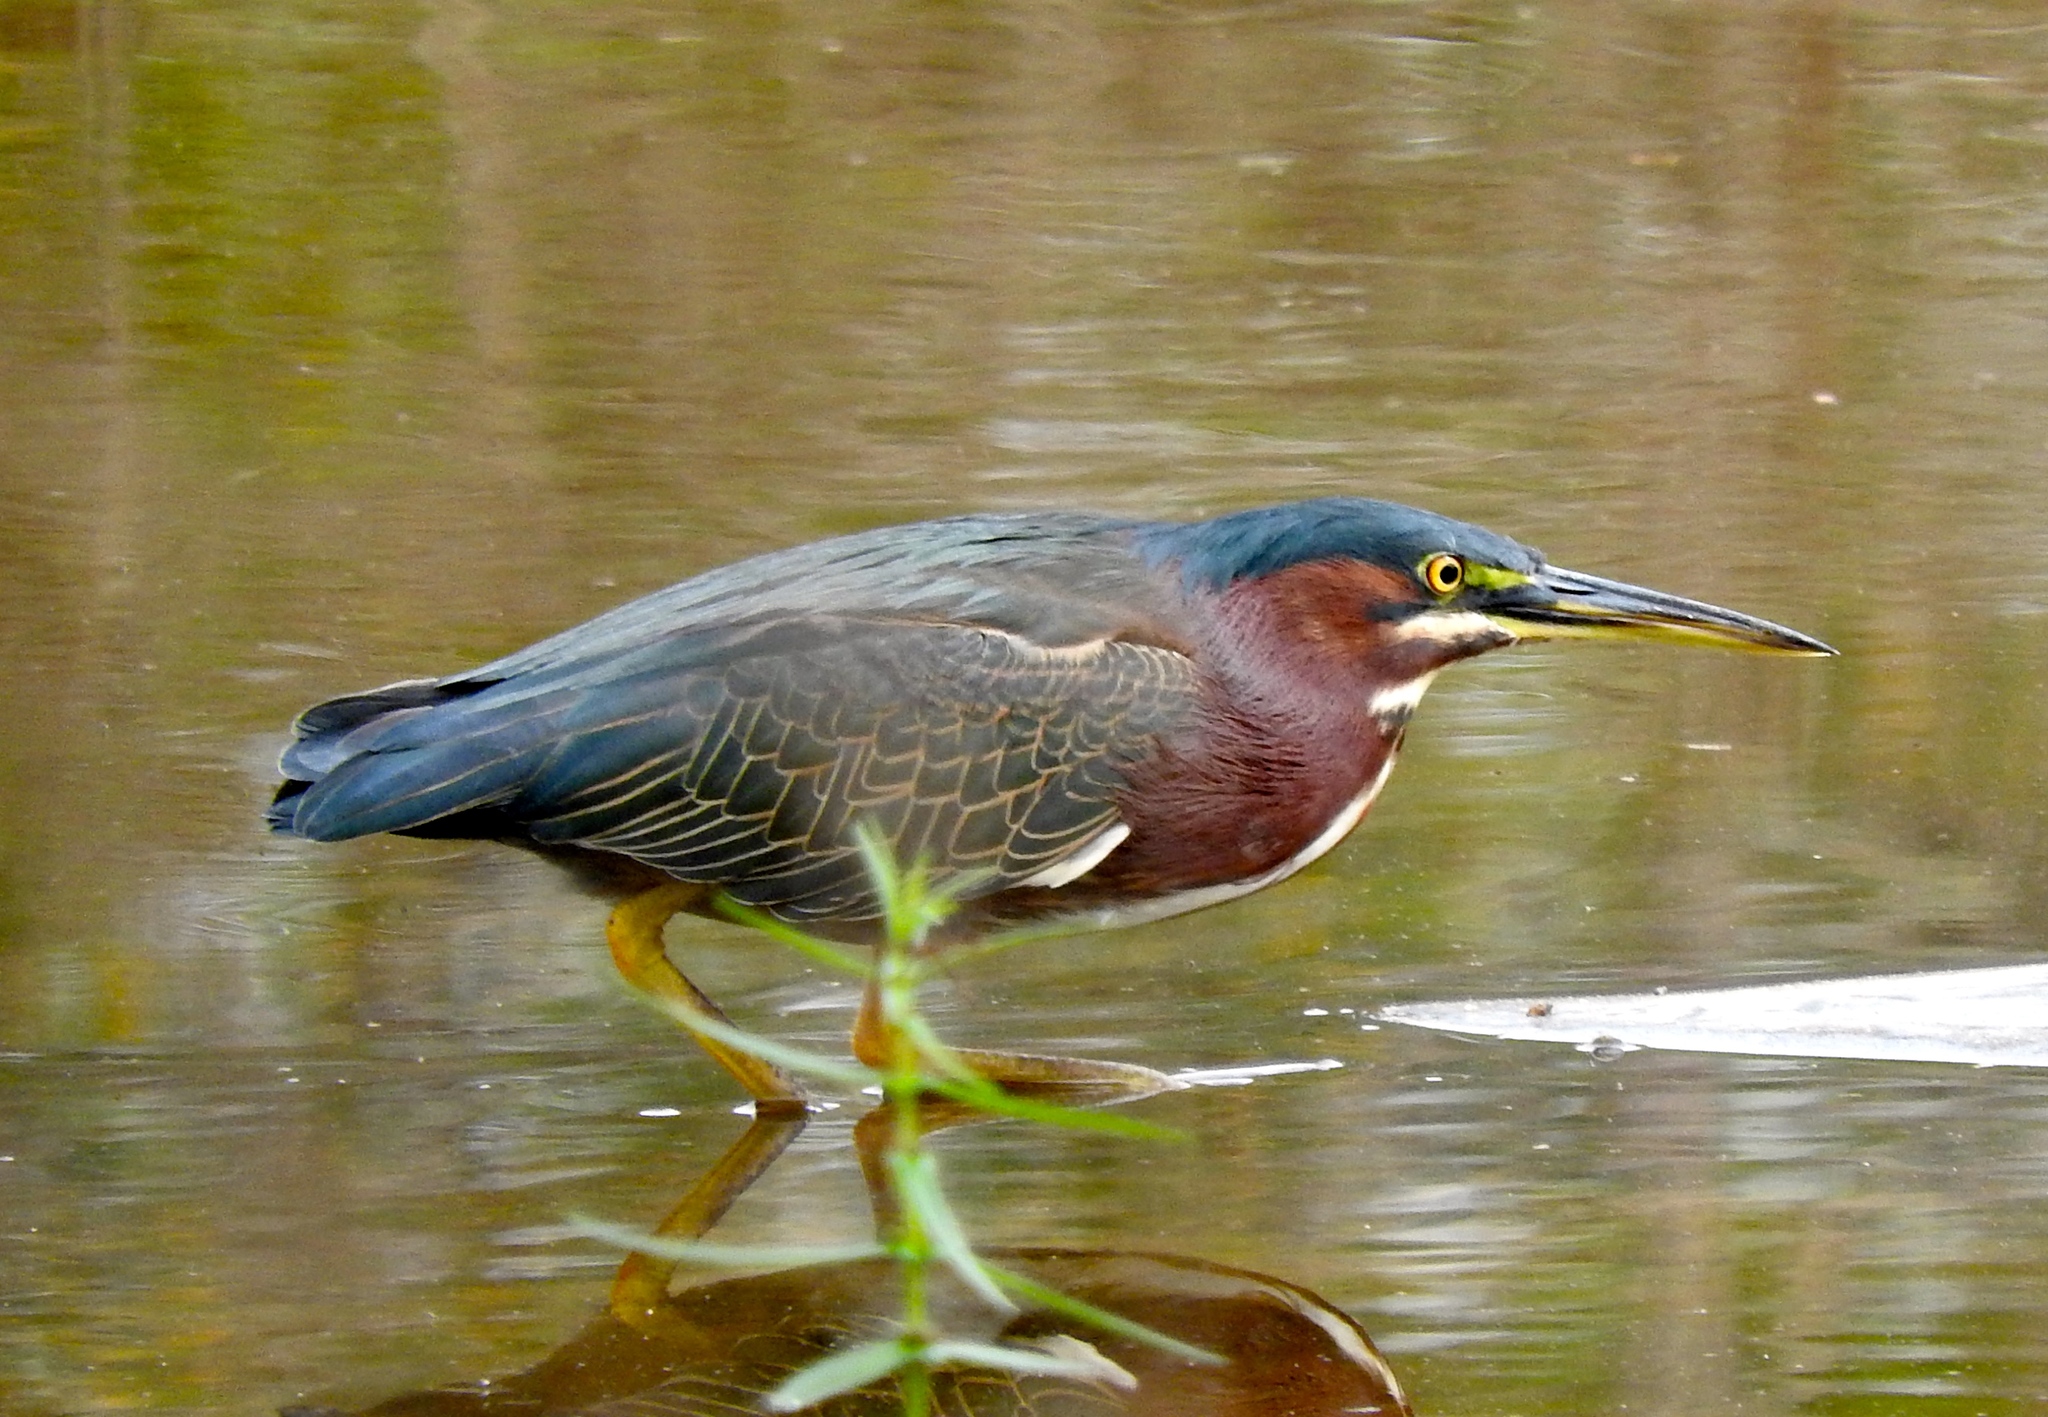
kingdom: Animalia
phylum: Chordata
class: Aves
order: Pelecaniformes
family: Ardeidae
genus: Butorides
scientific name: Butorides virescens
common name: Green heron
